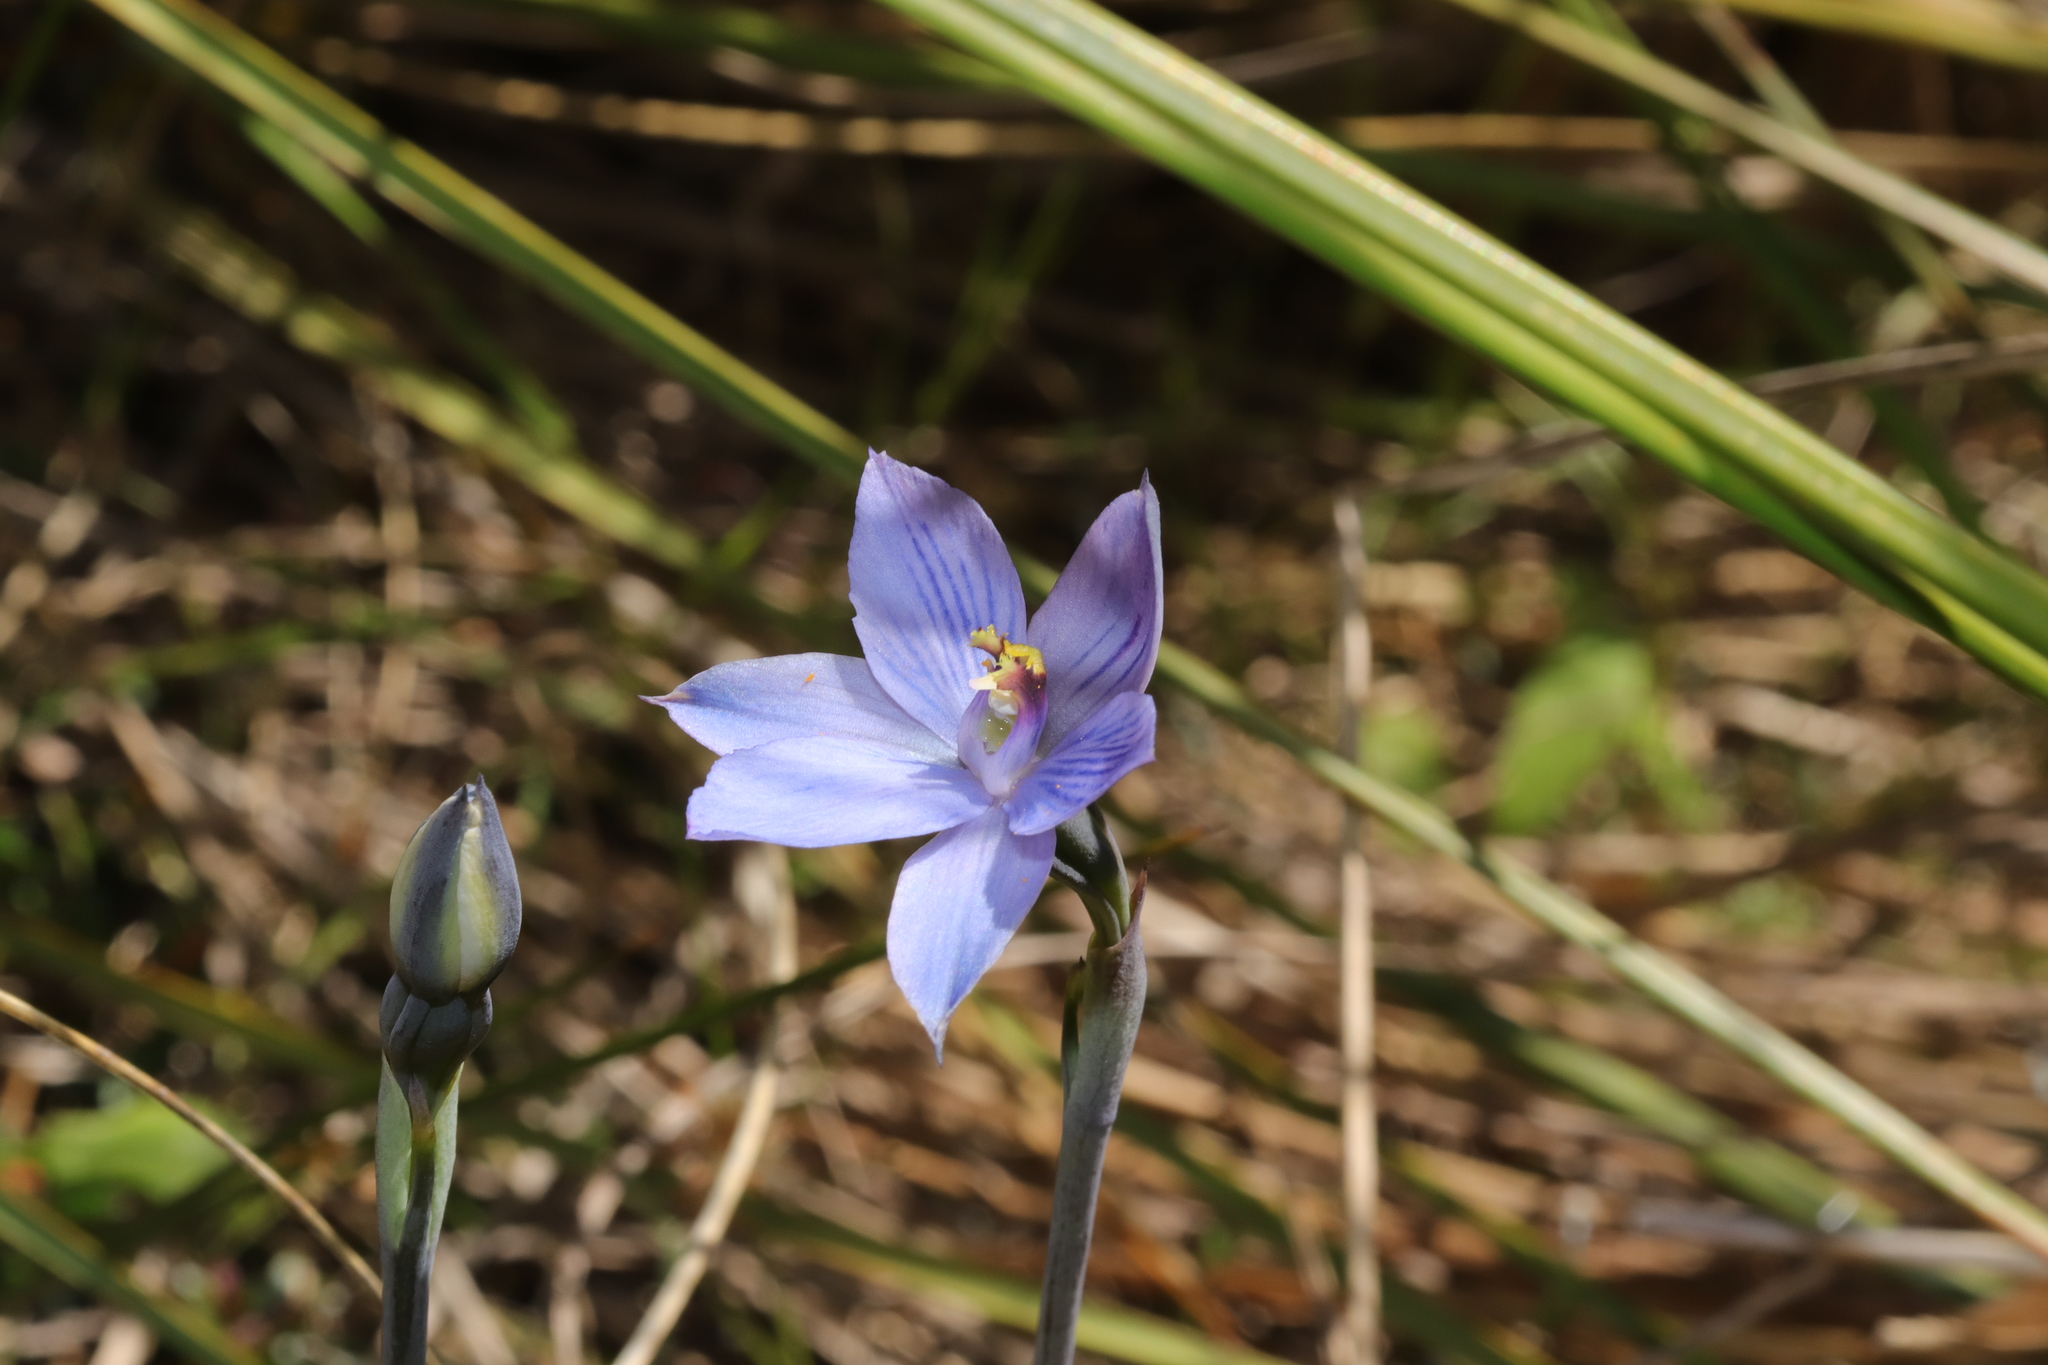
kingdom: Plantae
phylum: Tracheophyta
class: Liliopsida
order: Asparagales
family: Orchidaceae
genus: Thelymitra
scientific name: Thelymitra pulchella
